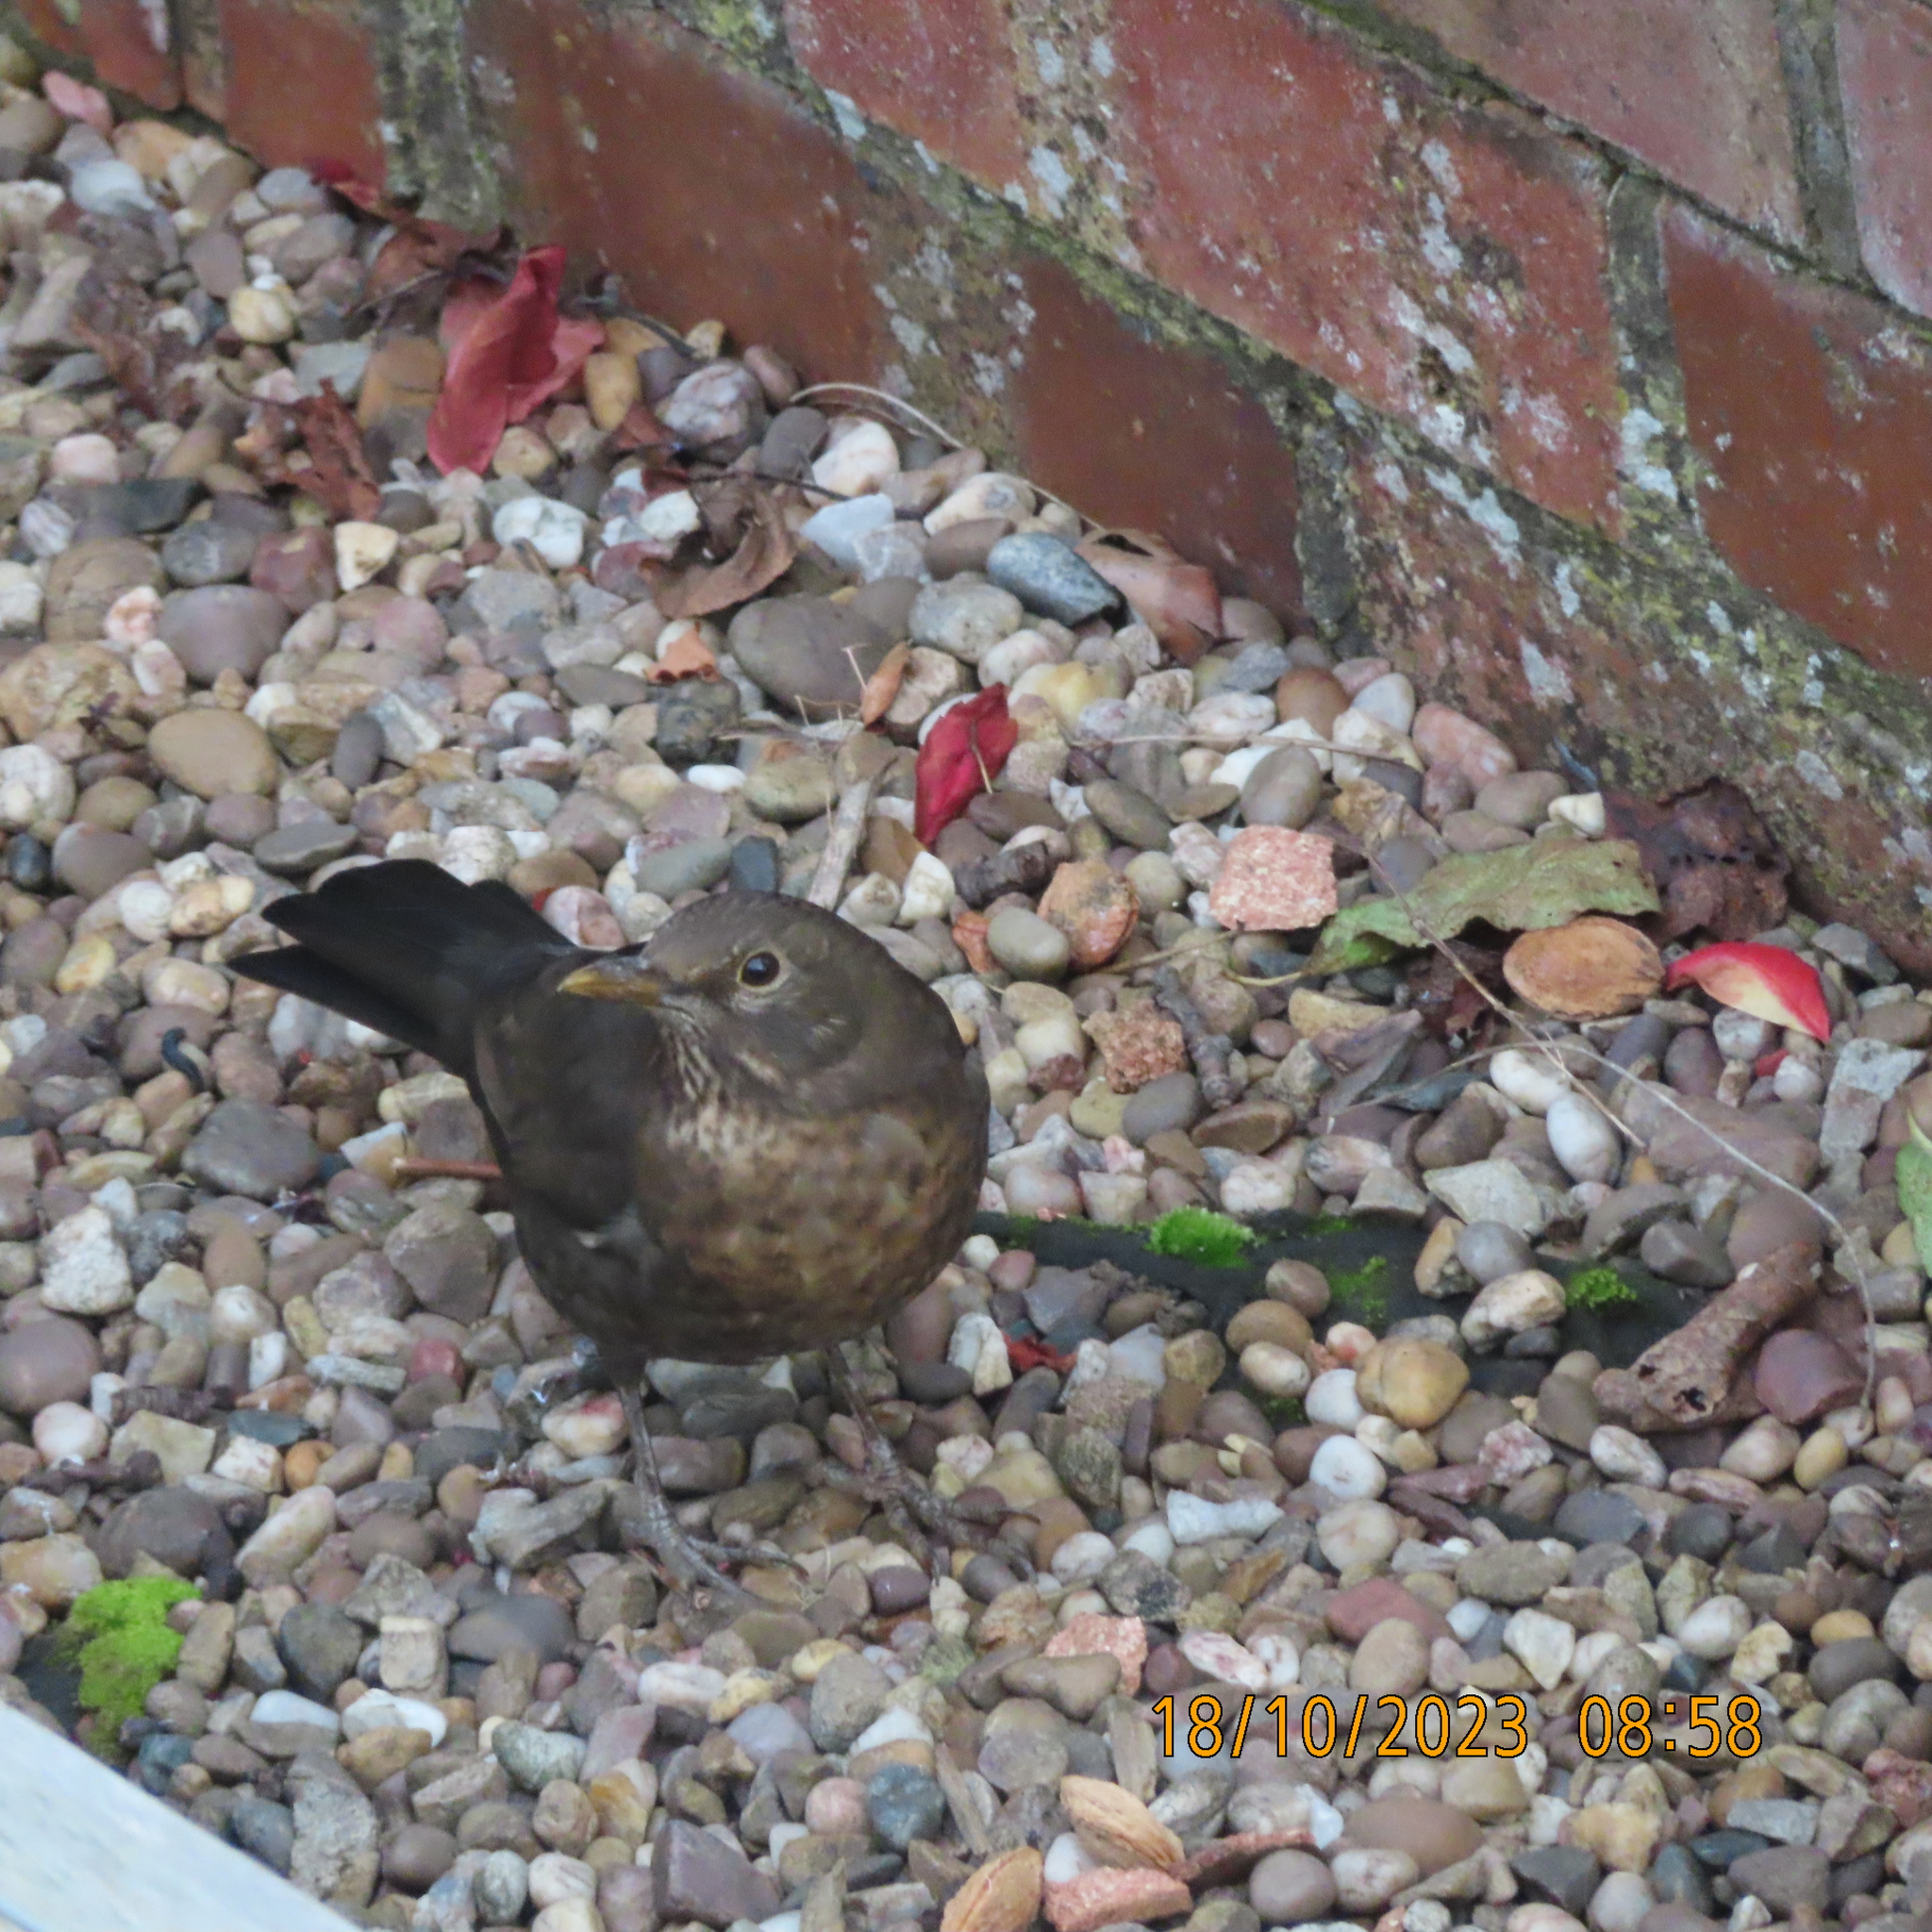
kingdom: Animalia
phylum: Chordata
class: Aves
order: Passeriformes
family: Turdidae
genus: Turdus
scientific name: Turdus merula
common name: Common blackbird
